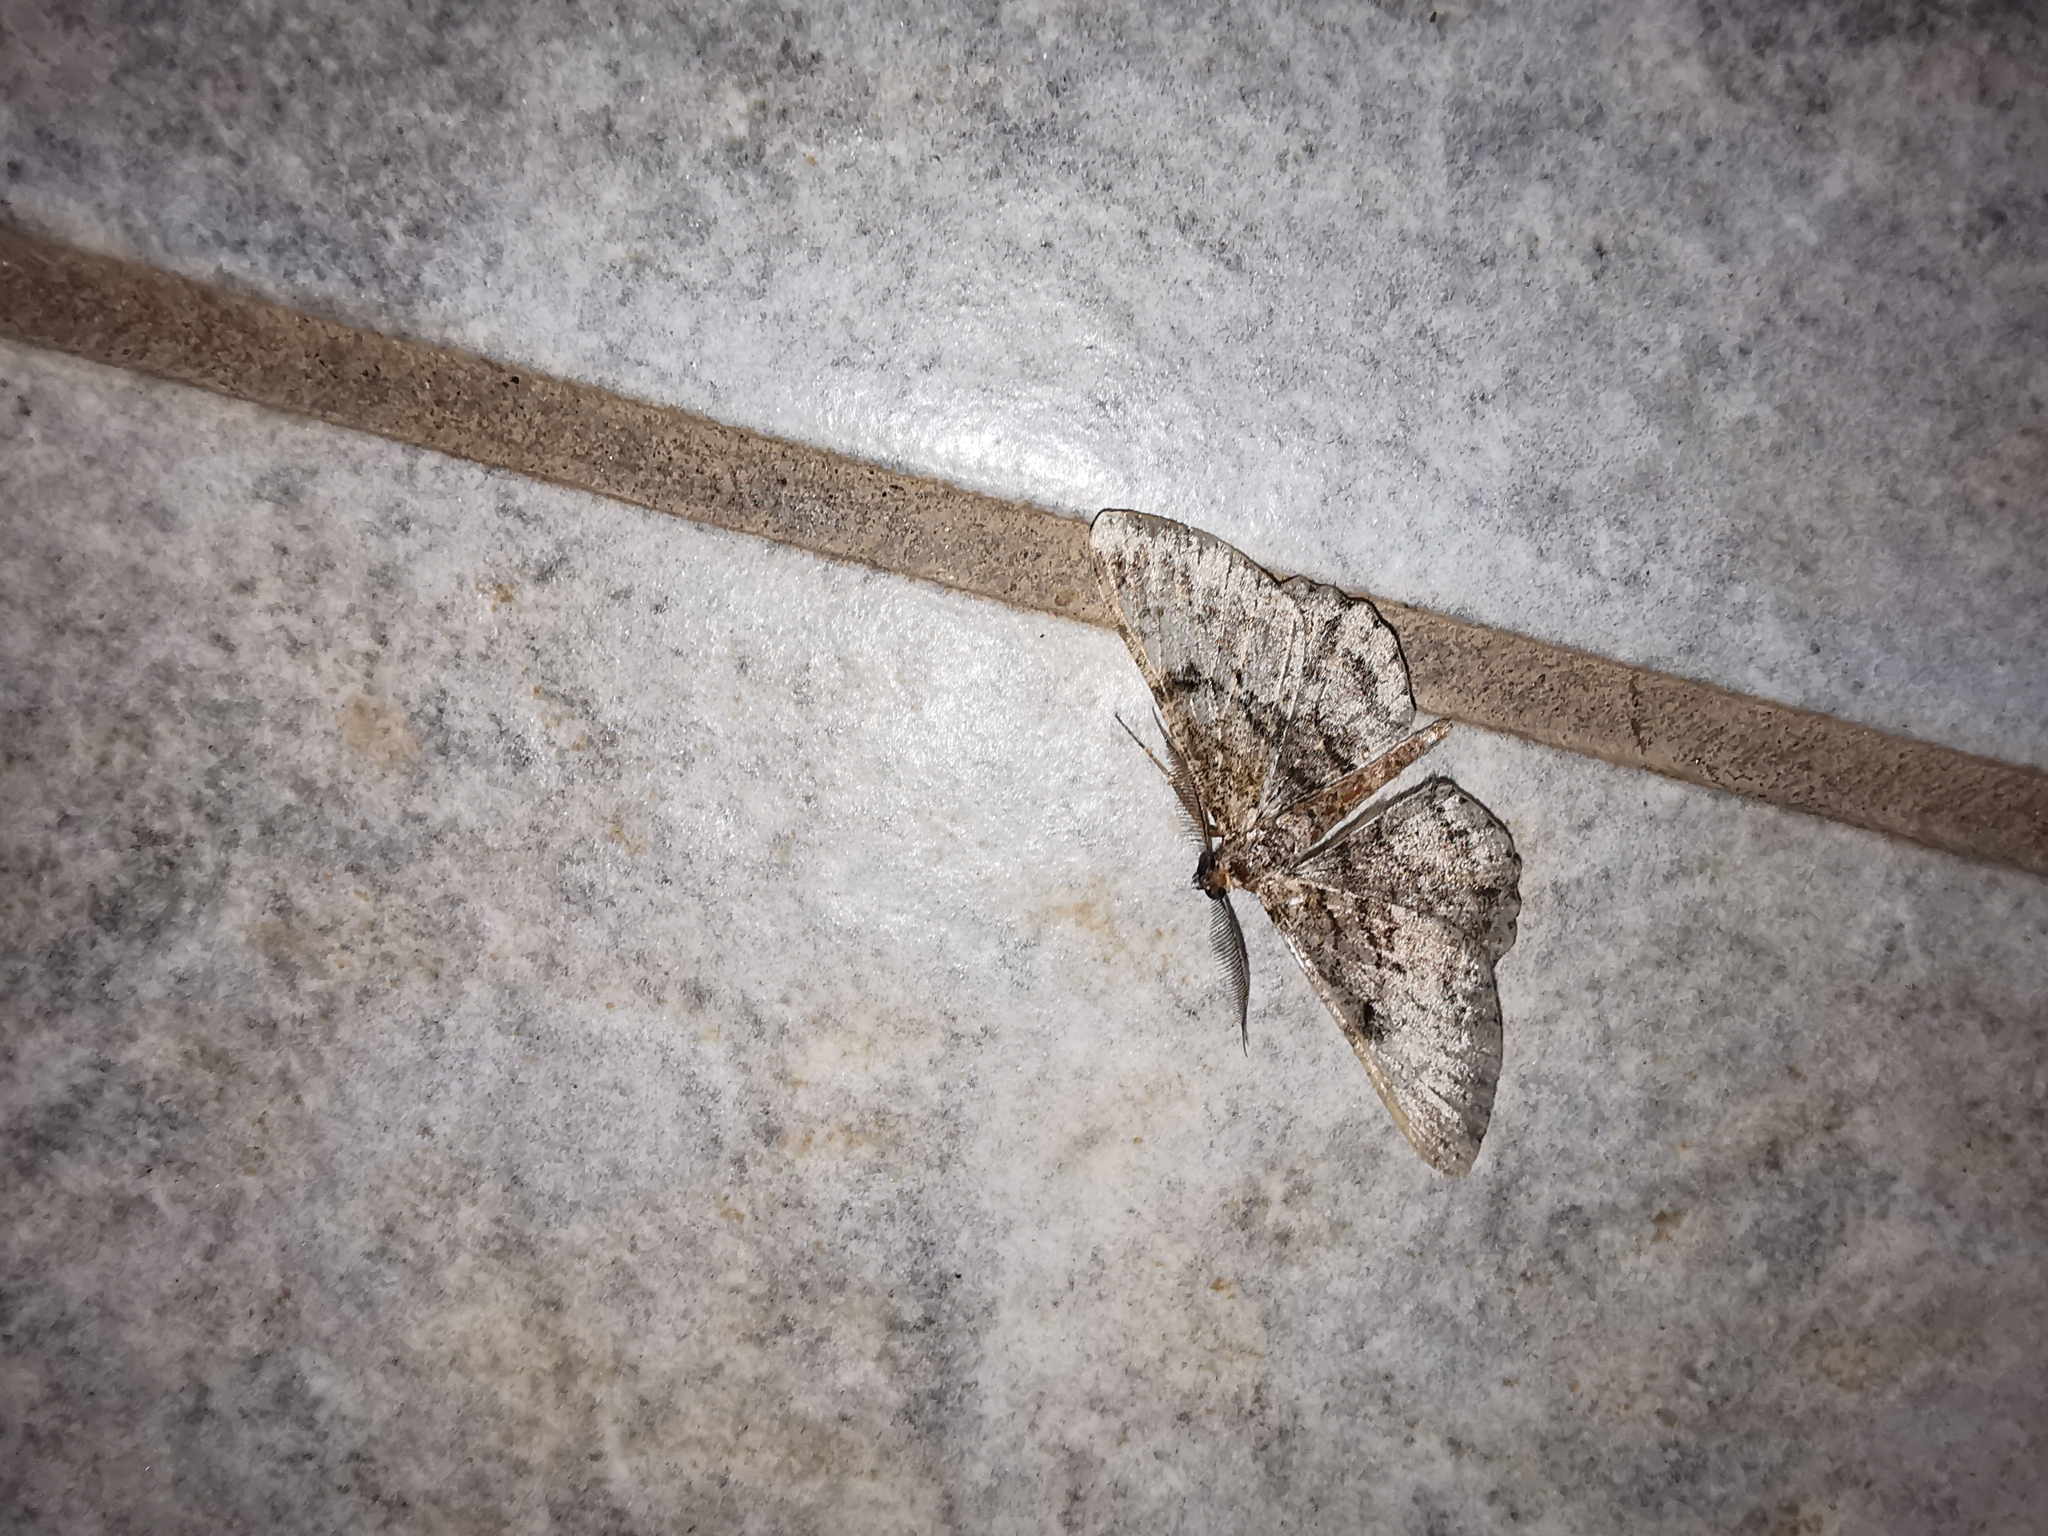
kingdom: Animalia
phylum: Arthropoda
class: Insecta
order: Lepidoptera
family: Geometridae
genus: Peribatodes
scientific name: Peribatodes rhomboidaria
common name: Willow beauty
